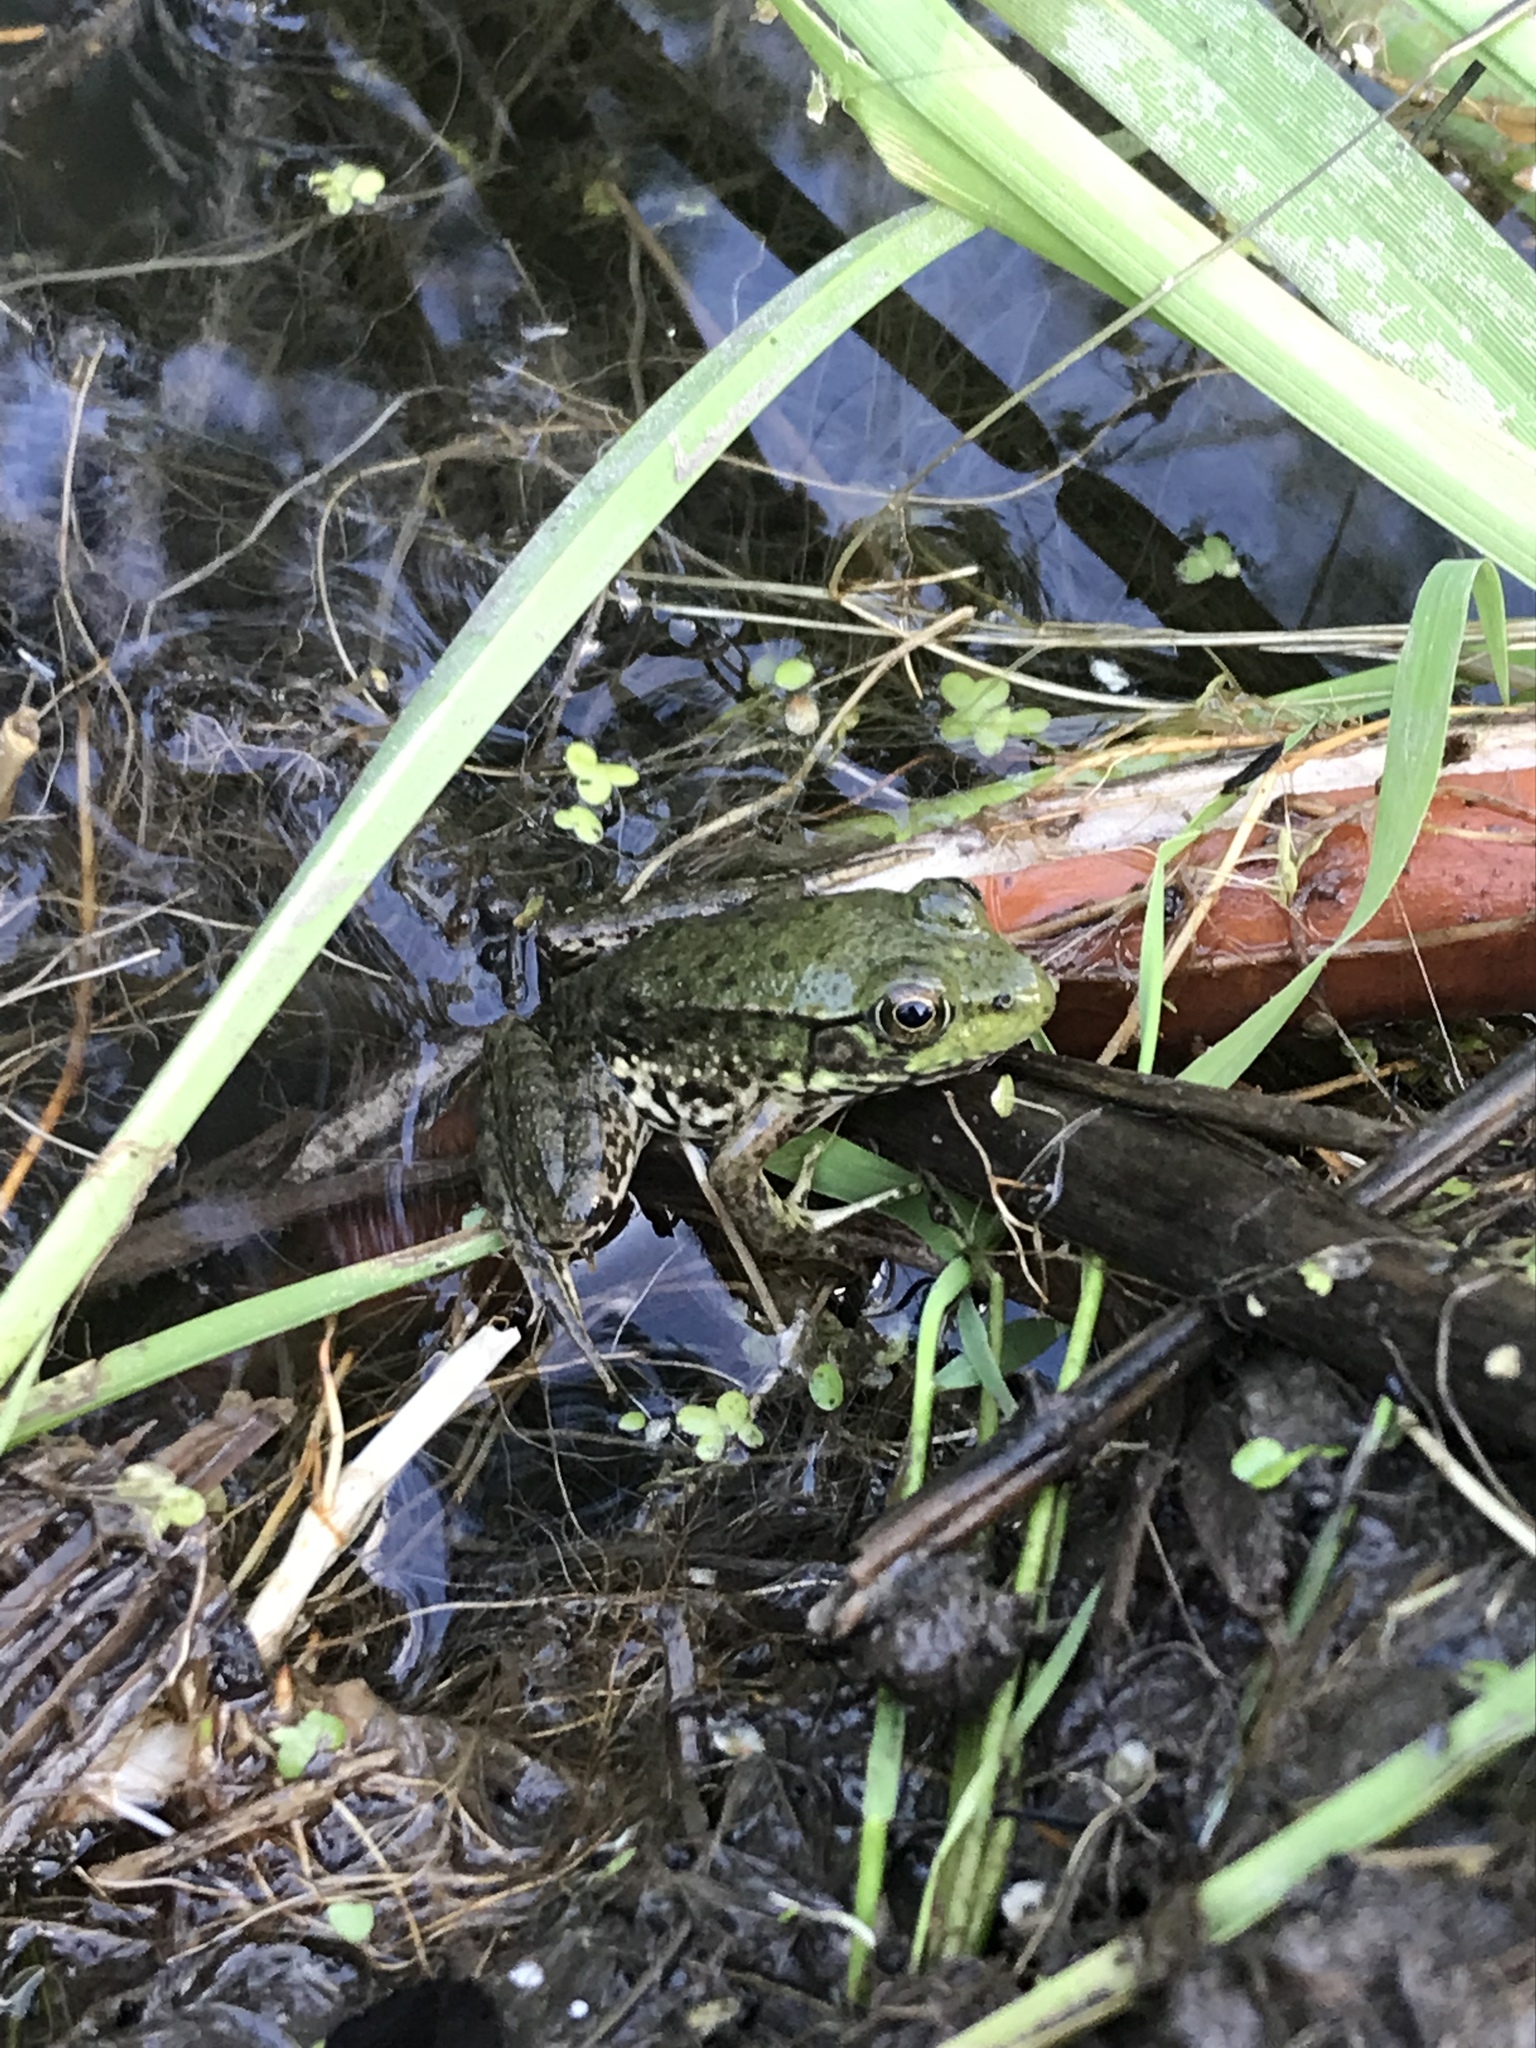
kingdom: Animalia
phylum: Chordata
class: Amphibia
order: Anura
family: Ranidae
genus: Lithobates
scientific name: Lithobates clamitans
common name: Green frog
